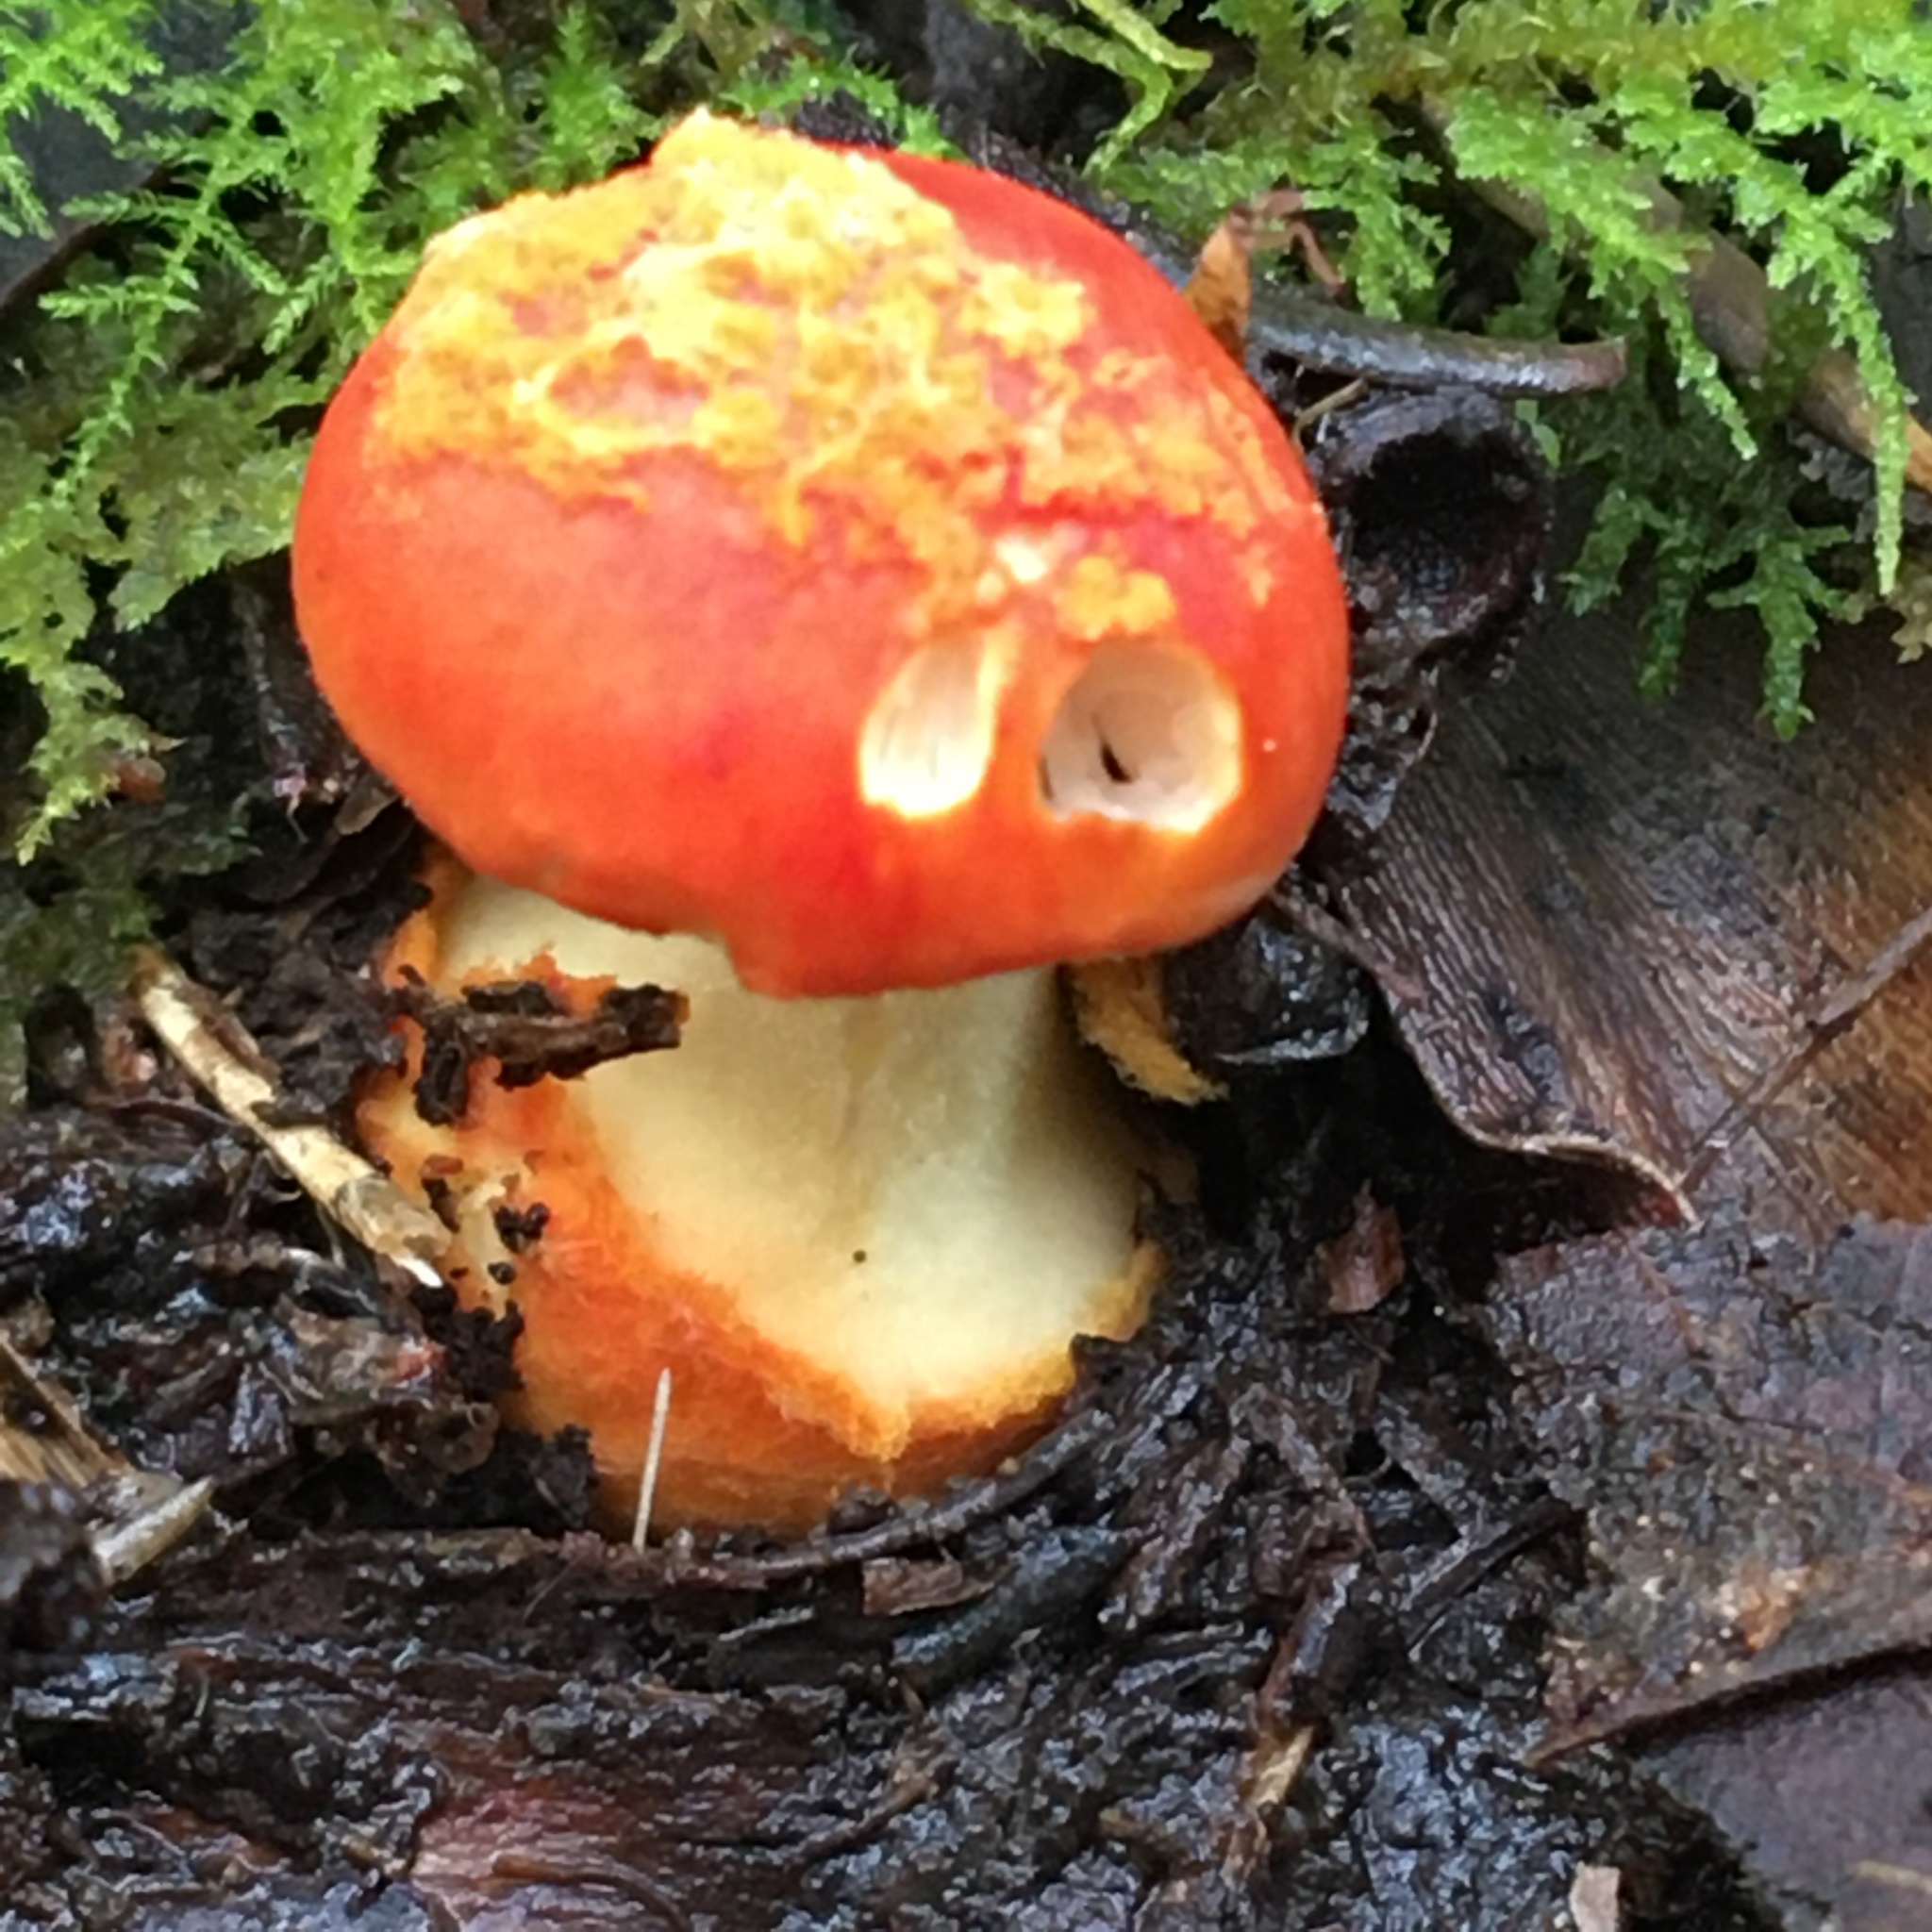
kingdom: Fungi
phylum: Basidiomycota
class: Agaricomycetes
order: Agaricales
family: Amanitaceae
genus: Amanita
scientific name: Amanita xanthocephala
